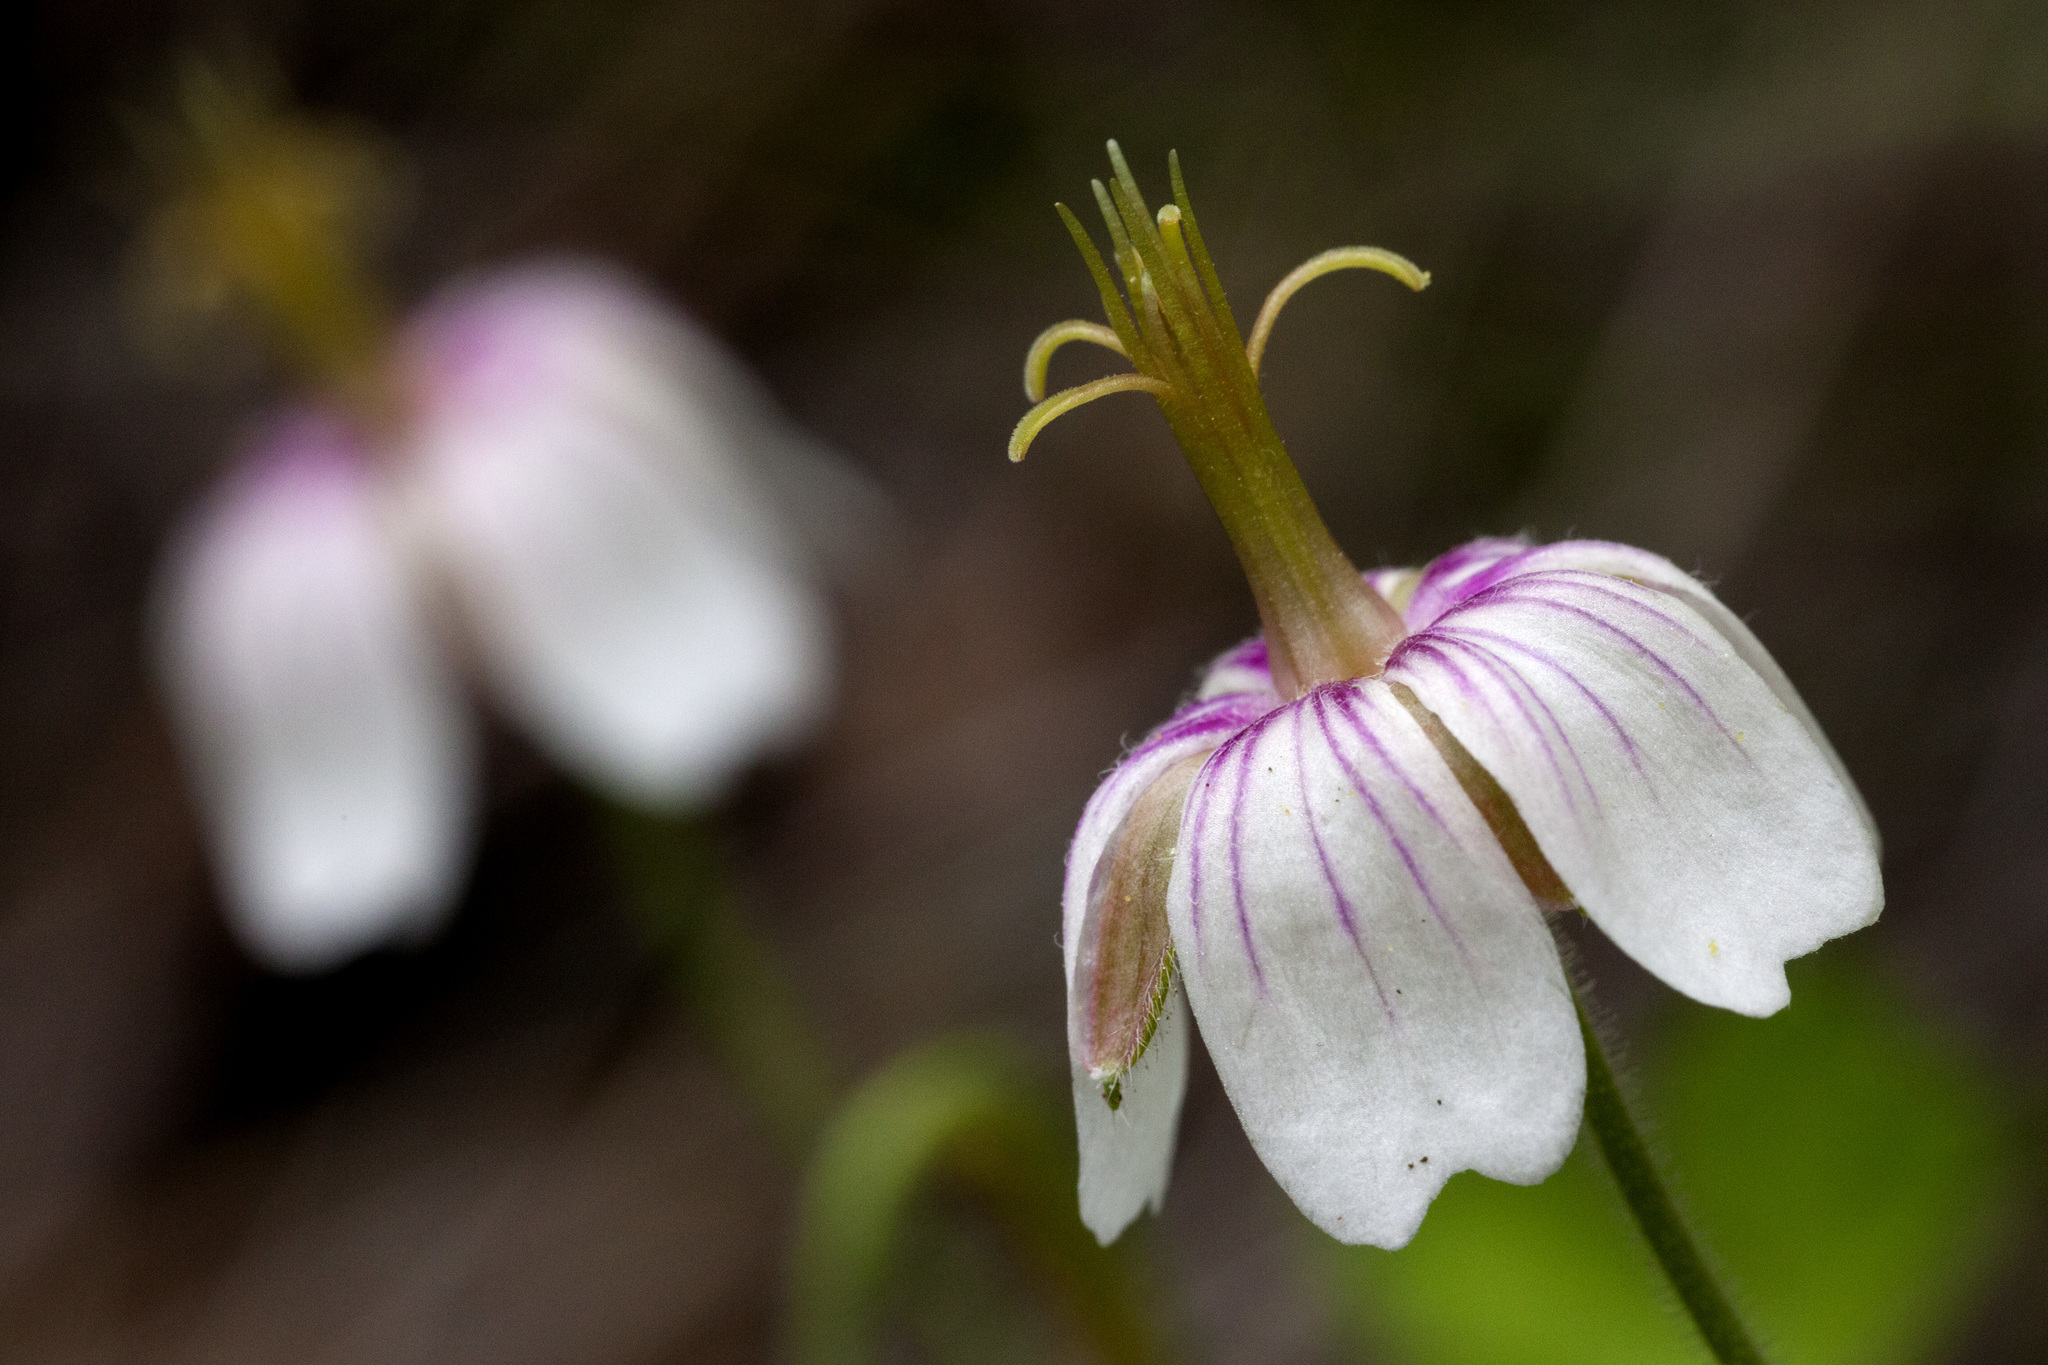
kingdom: Plantae
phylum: Tracheophyta
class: Magnoliopsida
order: Geraniales
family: Geraniaceae
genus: Geranium
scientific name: Geranium lentum
